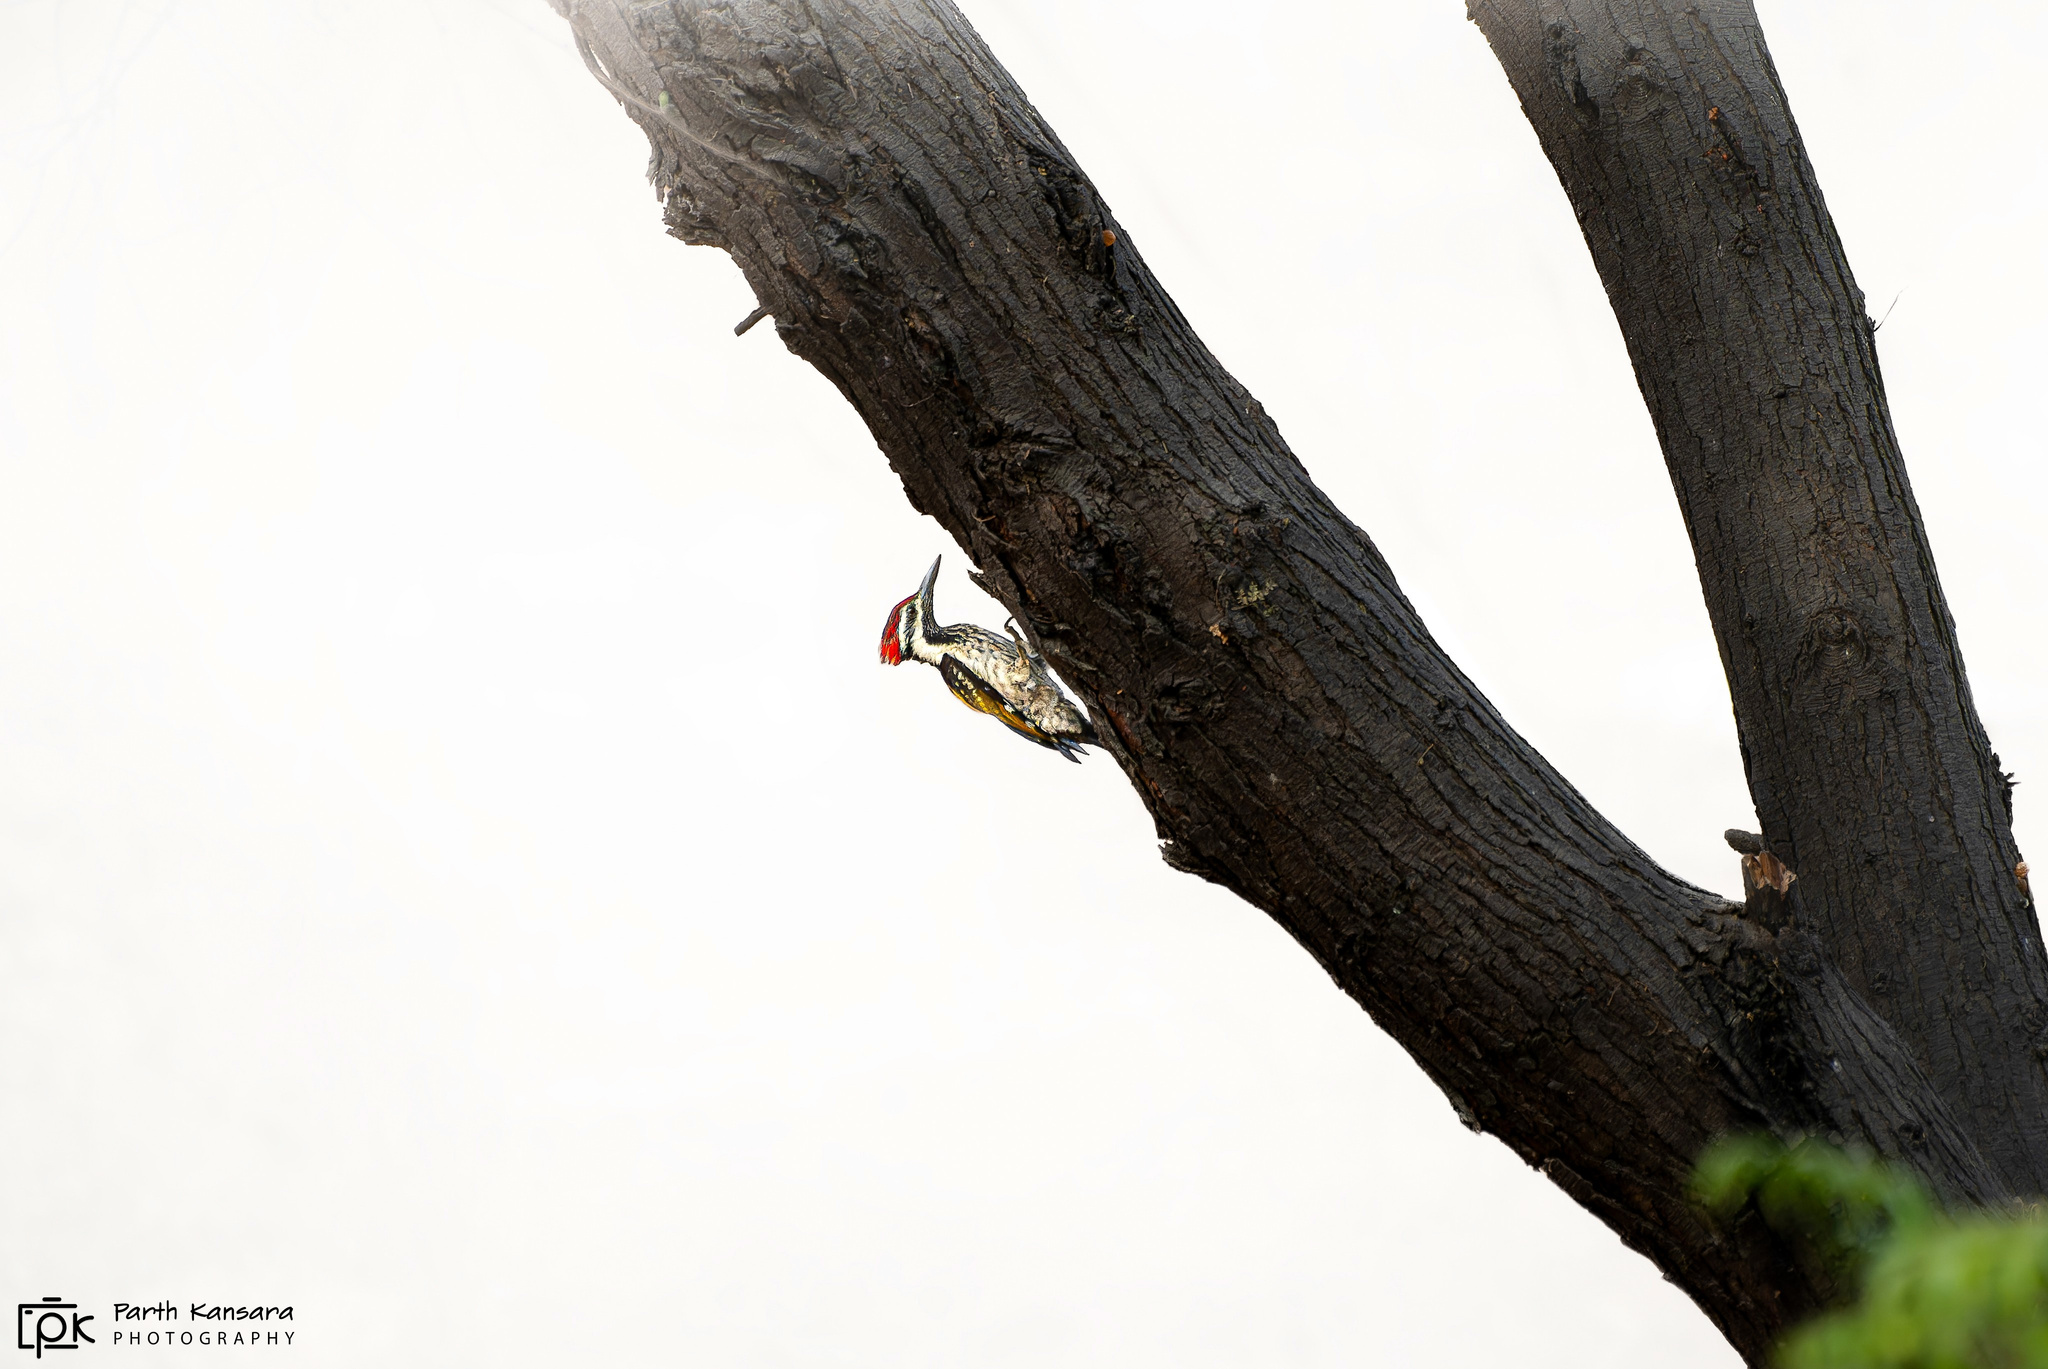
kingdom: Animalia
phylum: Chordata
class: Aves
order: Piciformes
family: Picidae
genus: Dinopium
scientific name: Dinopium benghalense
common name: Black-rumped flameback
